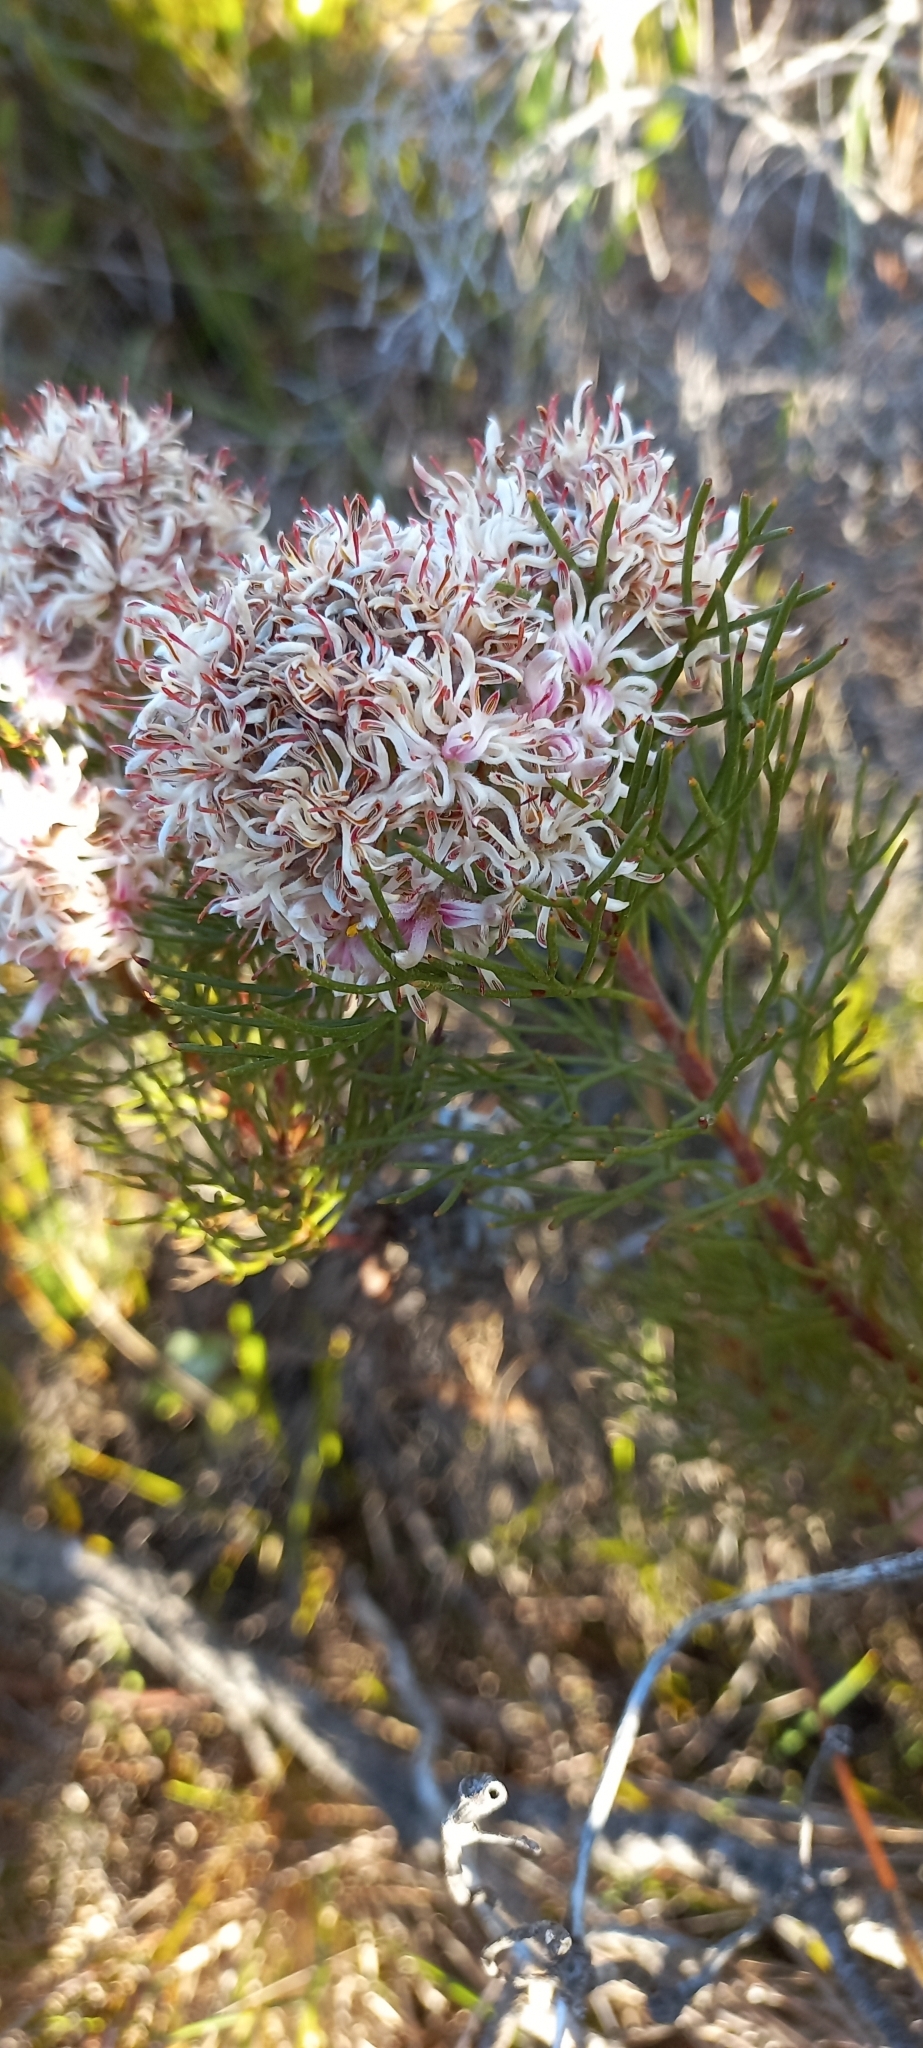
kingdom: Plantae
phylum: Tracheophyta
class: Magnoliopsida
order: Proteales
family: Proteaceae
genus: Serruria
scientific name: Serruria ascendens
